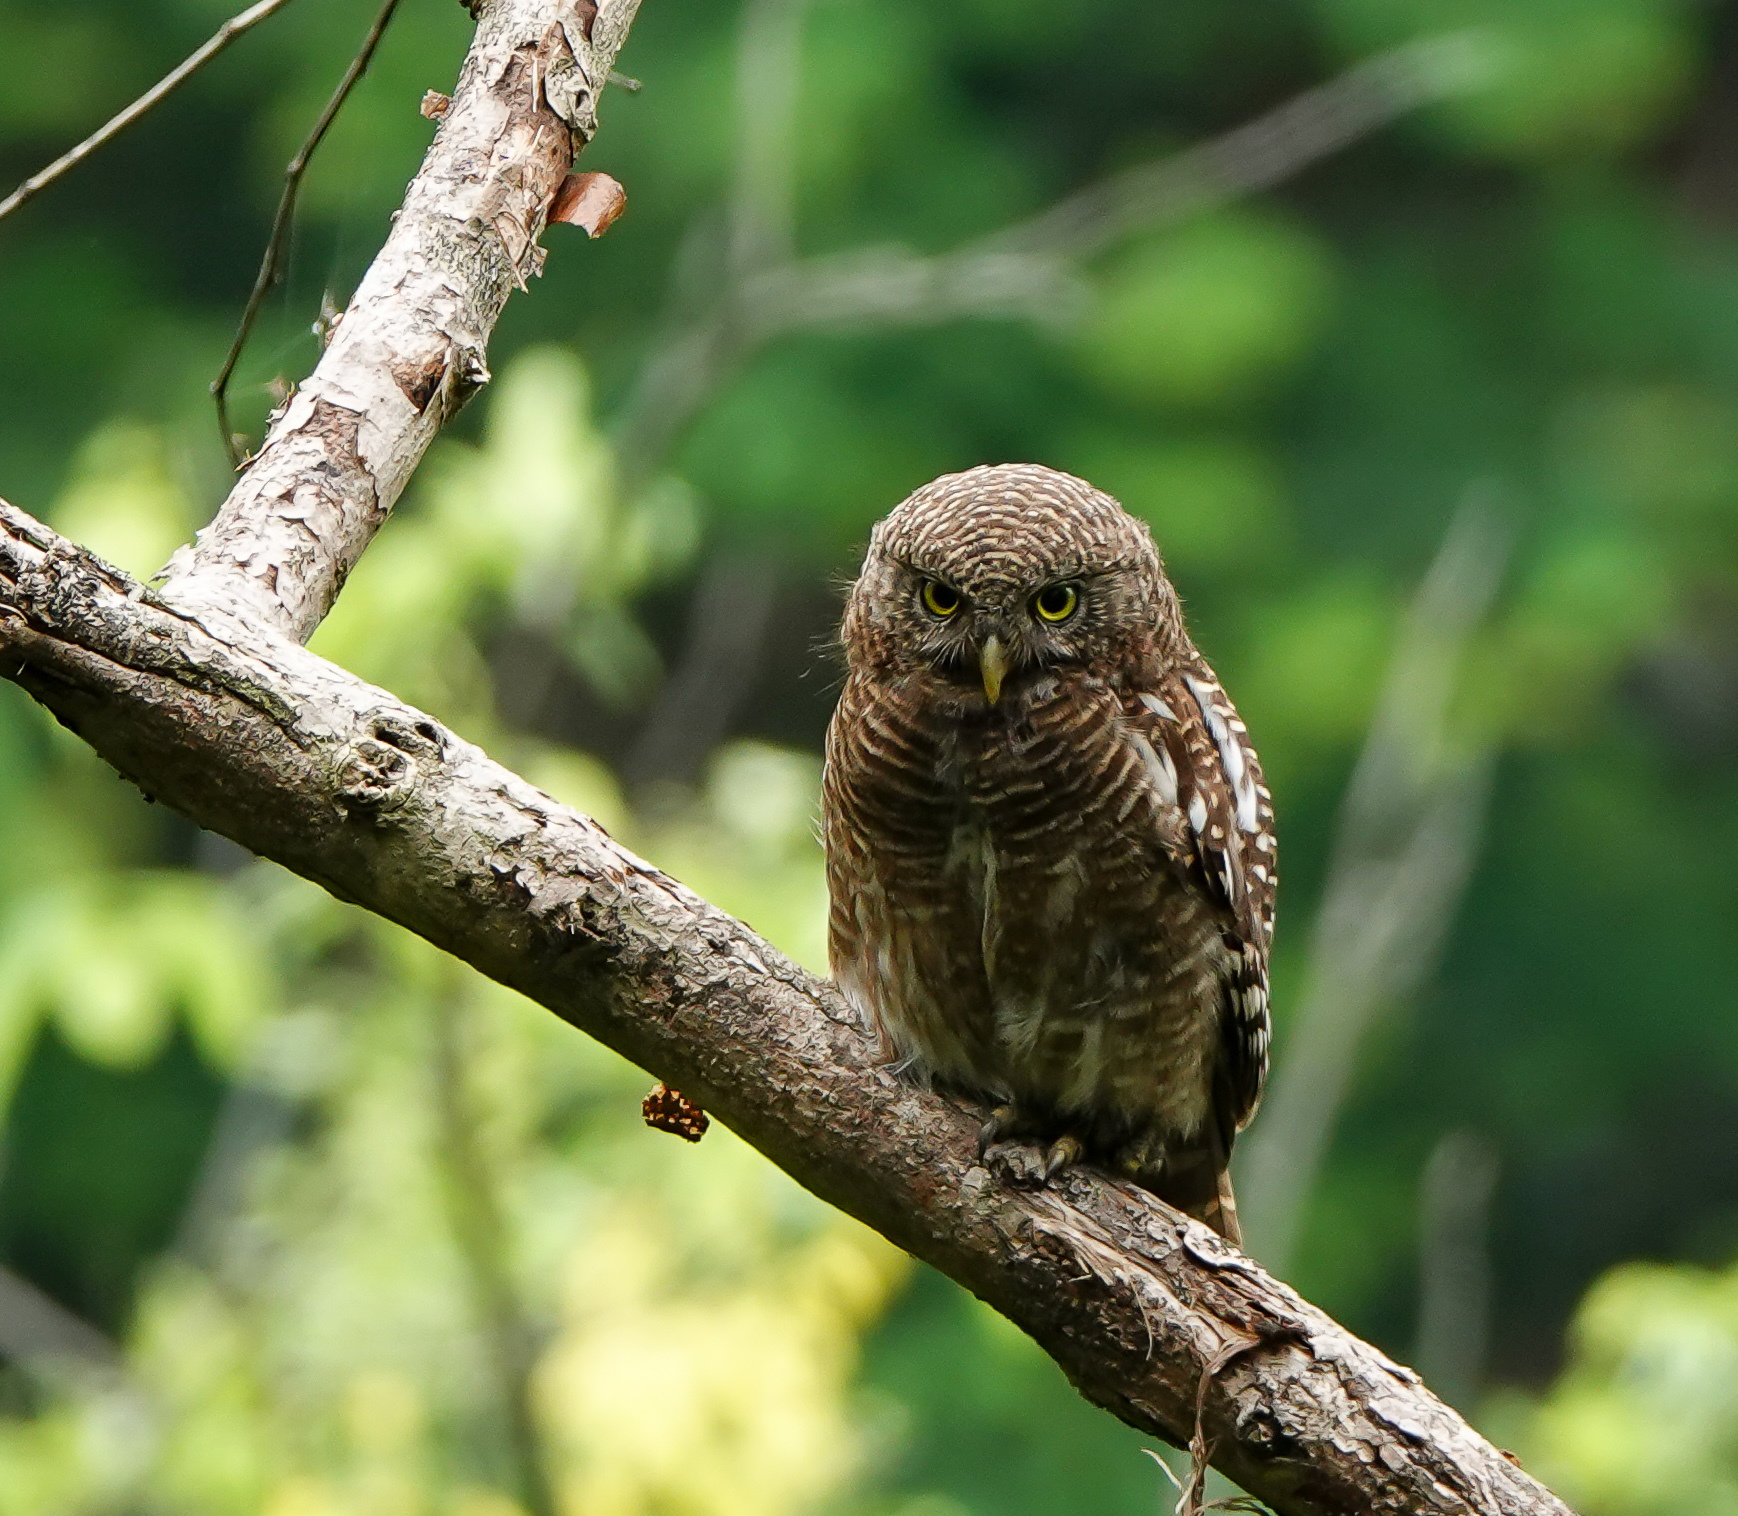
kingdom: Animalia
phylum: Chordata
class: Aves
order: Strigiformes
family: Strigidae
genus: Glaucidium
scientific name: Glaucidium cuculoides
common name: Asian barred owlet
